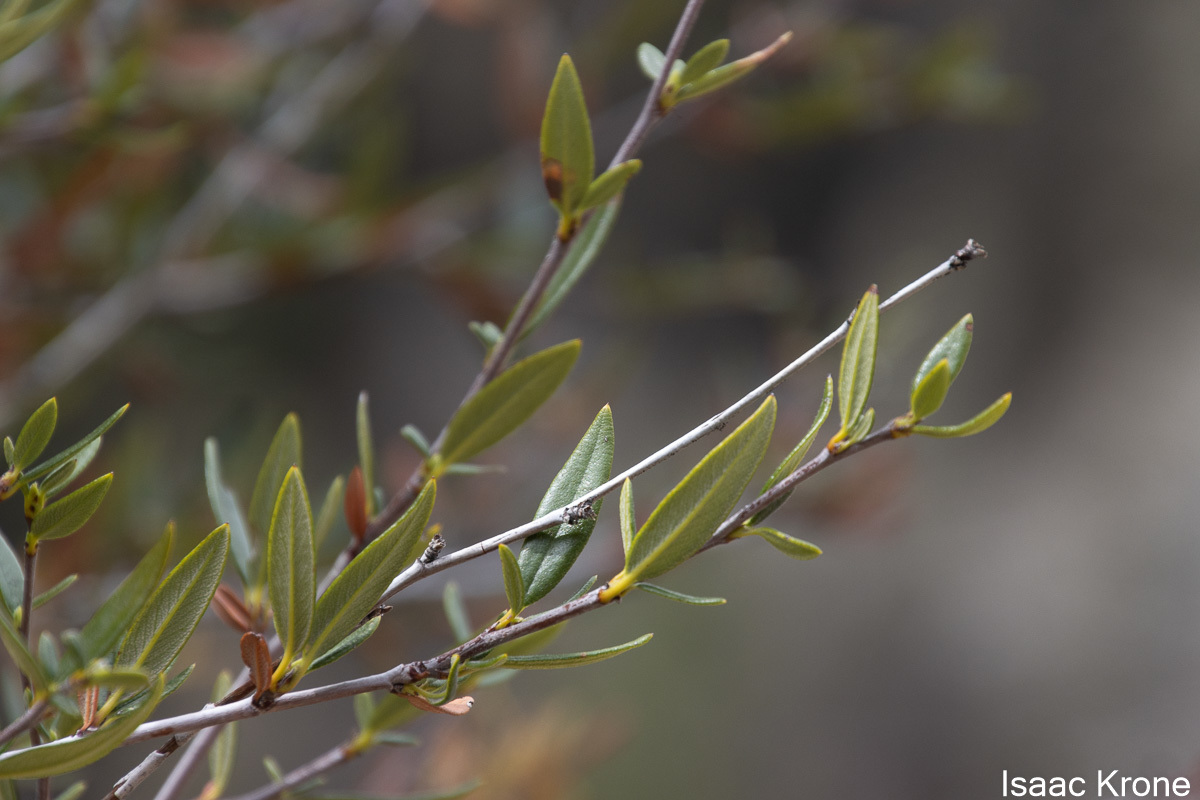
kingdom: Plantae
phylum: Tracheophyta
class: Magnoliopsida
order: Rosales
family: Rosaceae
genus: Cercocarpus
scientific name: Cercocarpus ledifolius
